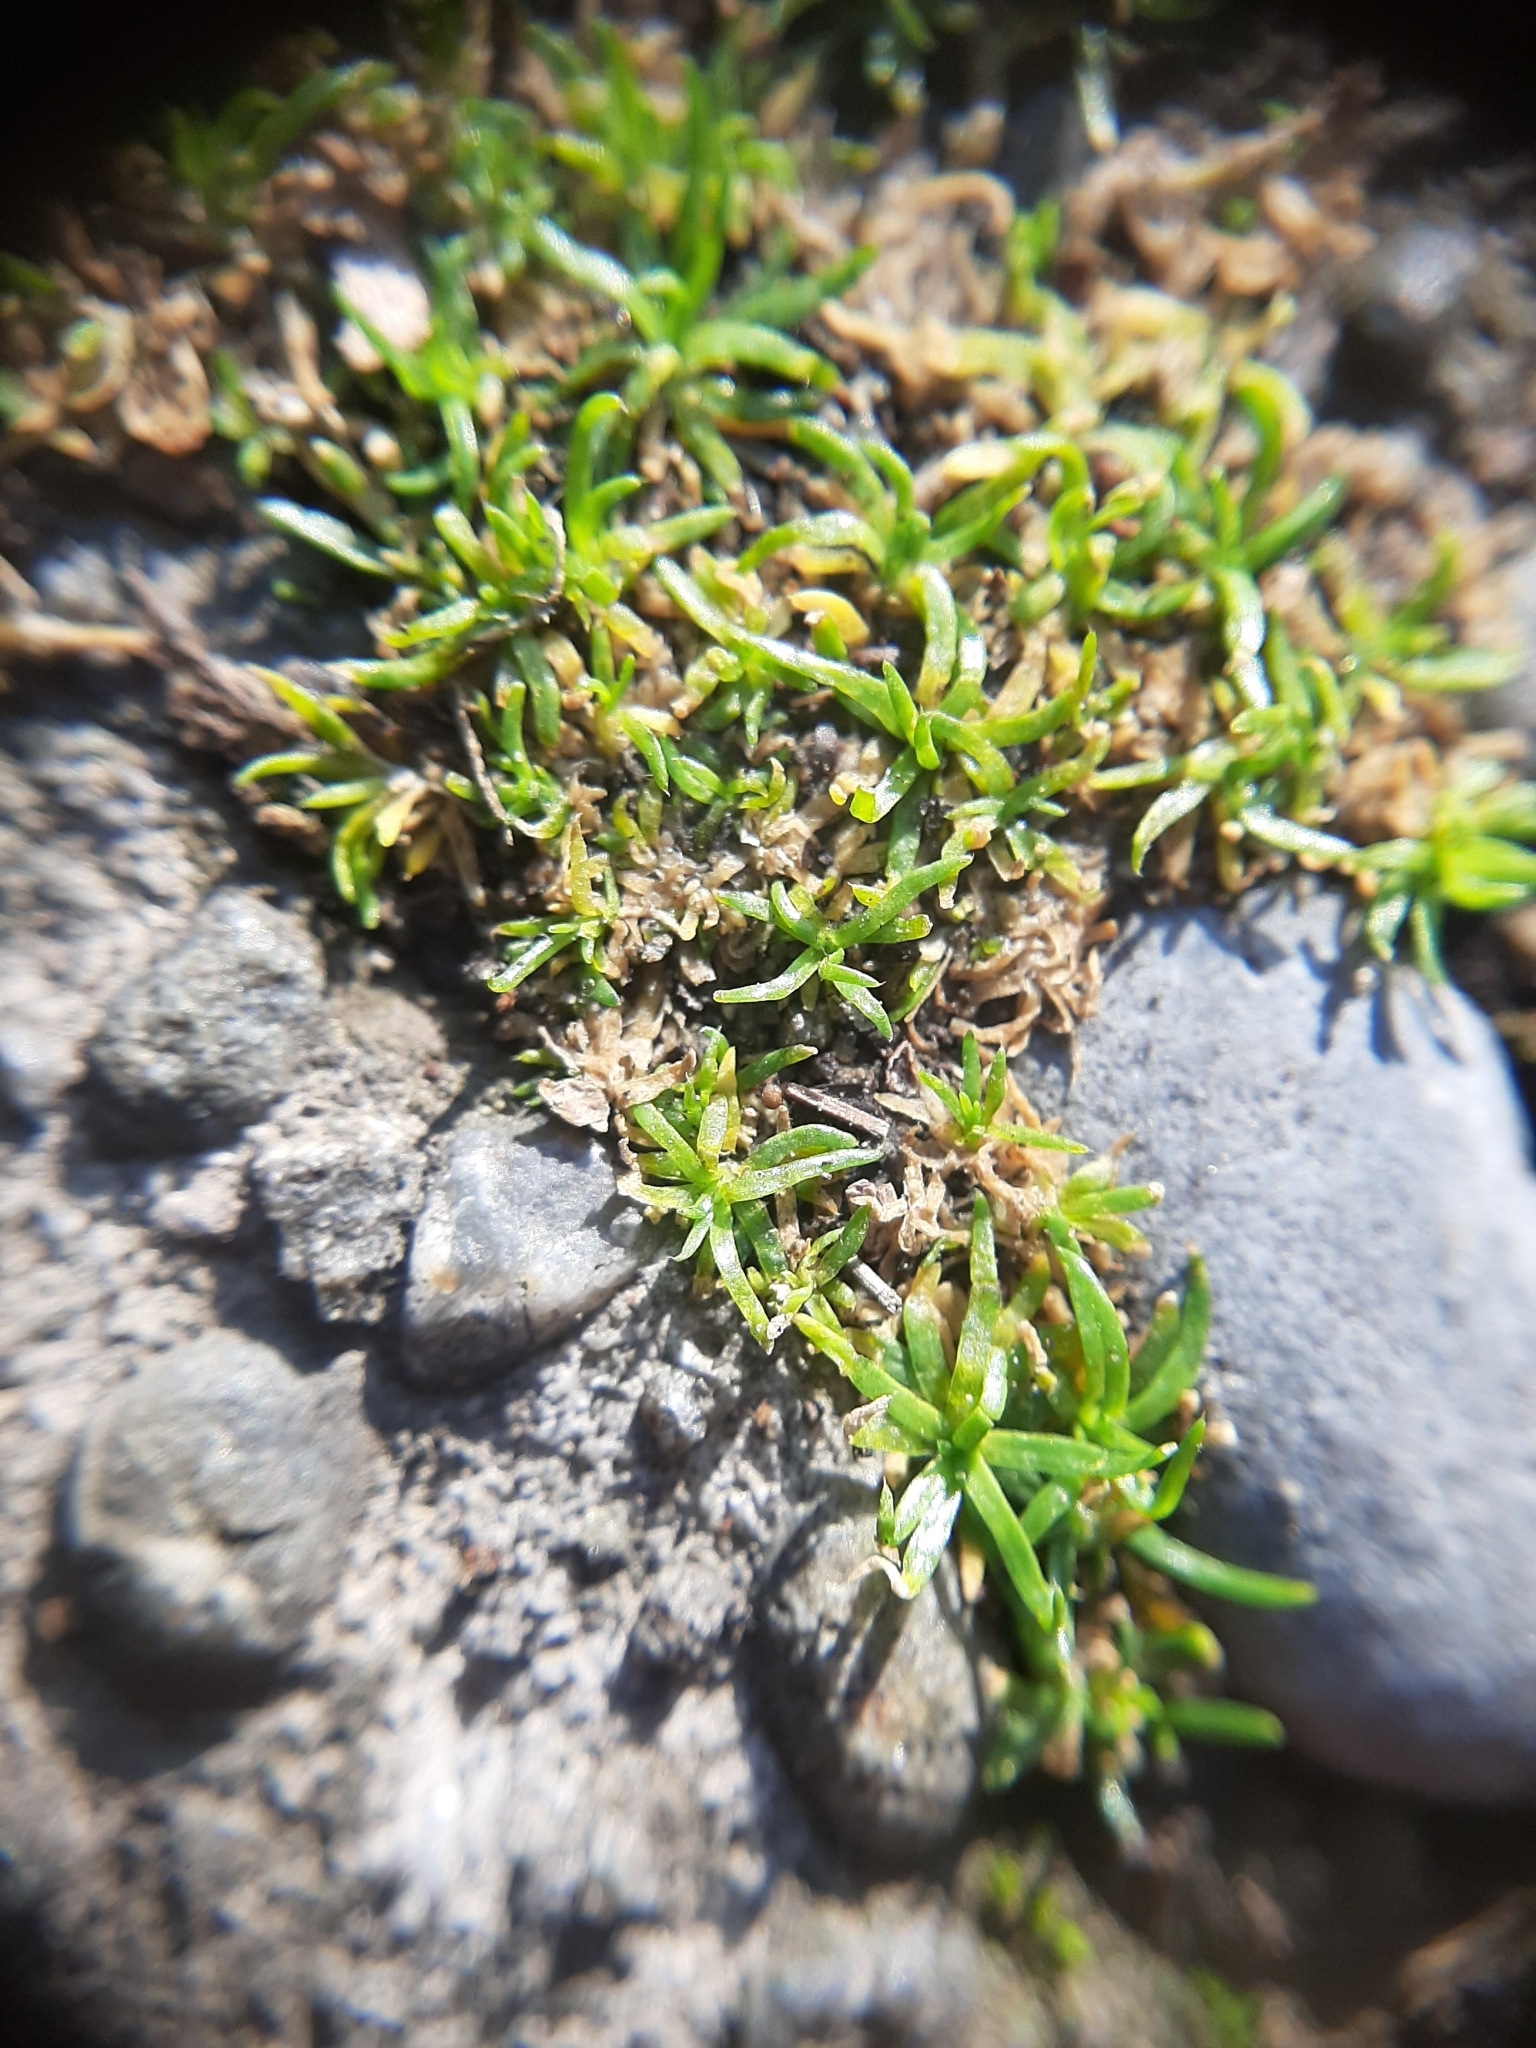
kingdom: Plantae
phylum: Tracheophyta
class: Magnoliopsida
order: Caryophyllales
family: Caryophyllaceae
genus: Sagina
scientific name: Sagina procumbens
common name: Procumbent pearlwort
